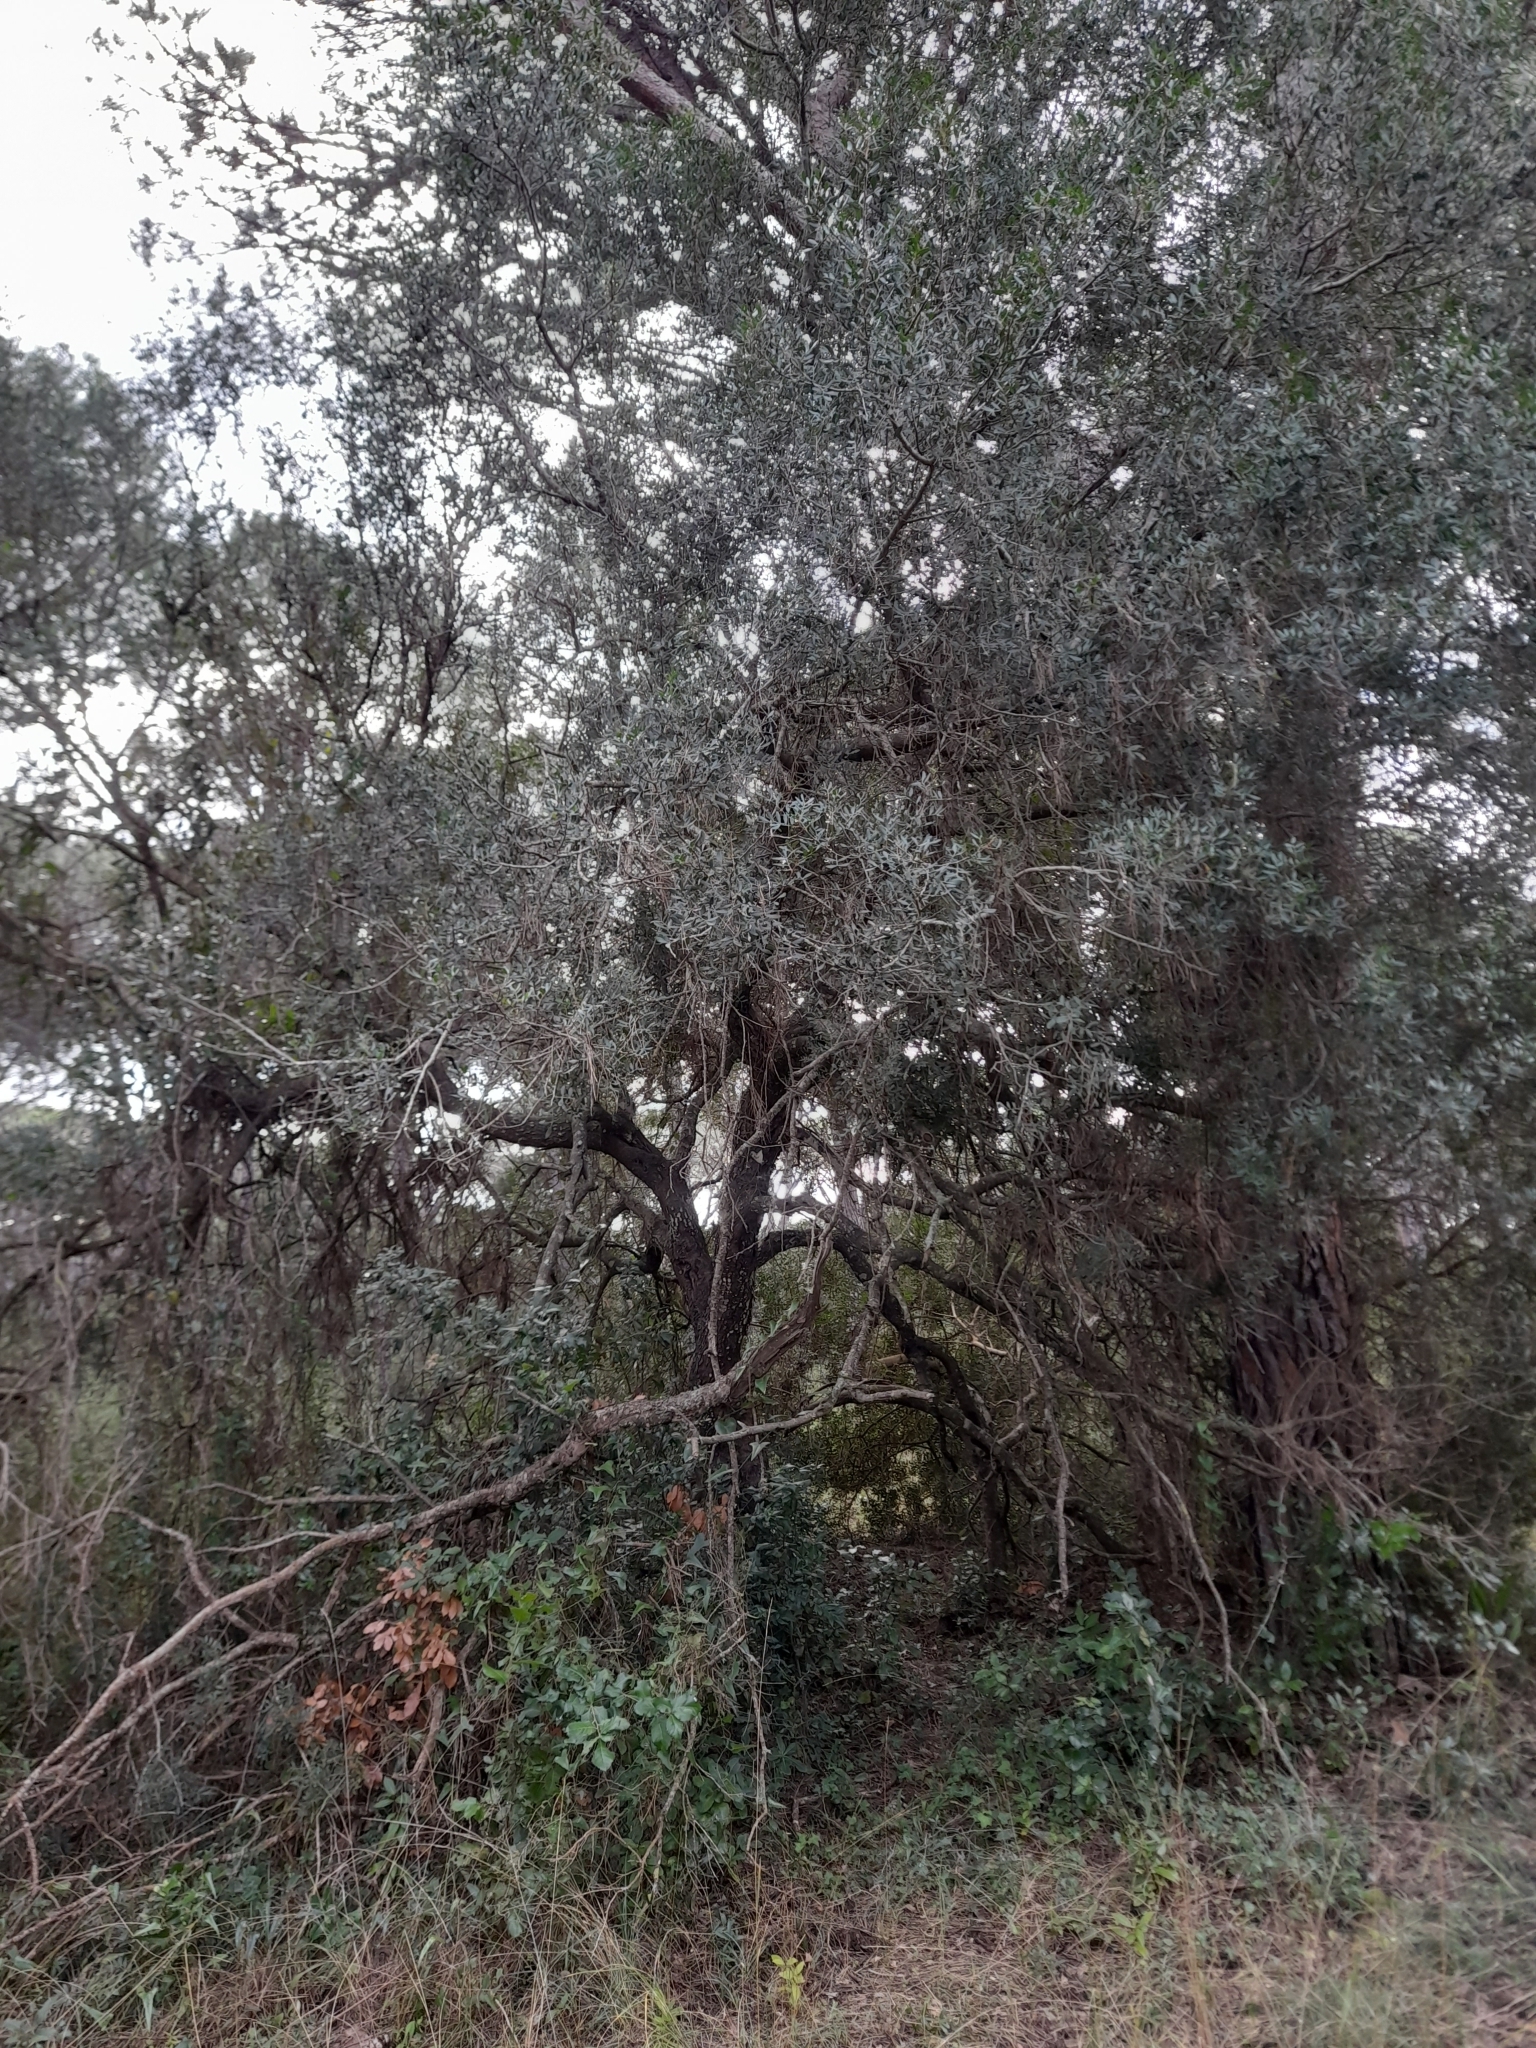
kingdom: Plantae
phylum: Tracheophyta
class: Magnoliopsida
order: Sapindales
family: Anacardiaceae
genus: Pistacia
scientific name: Pistacia lentiscus
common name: Lentisk
